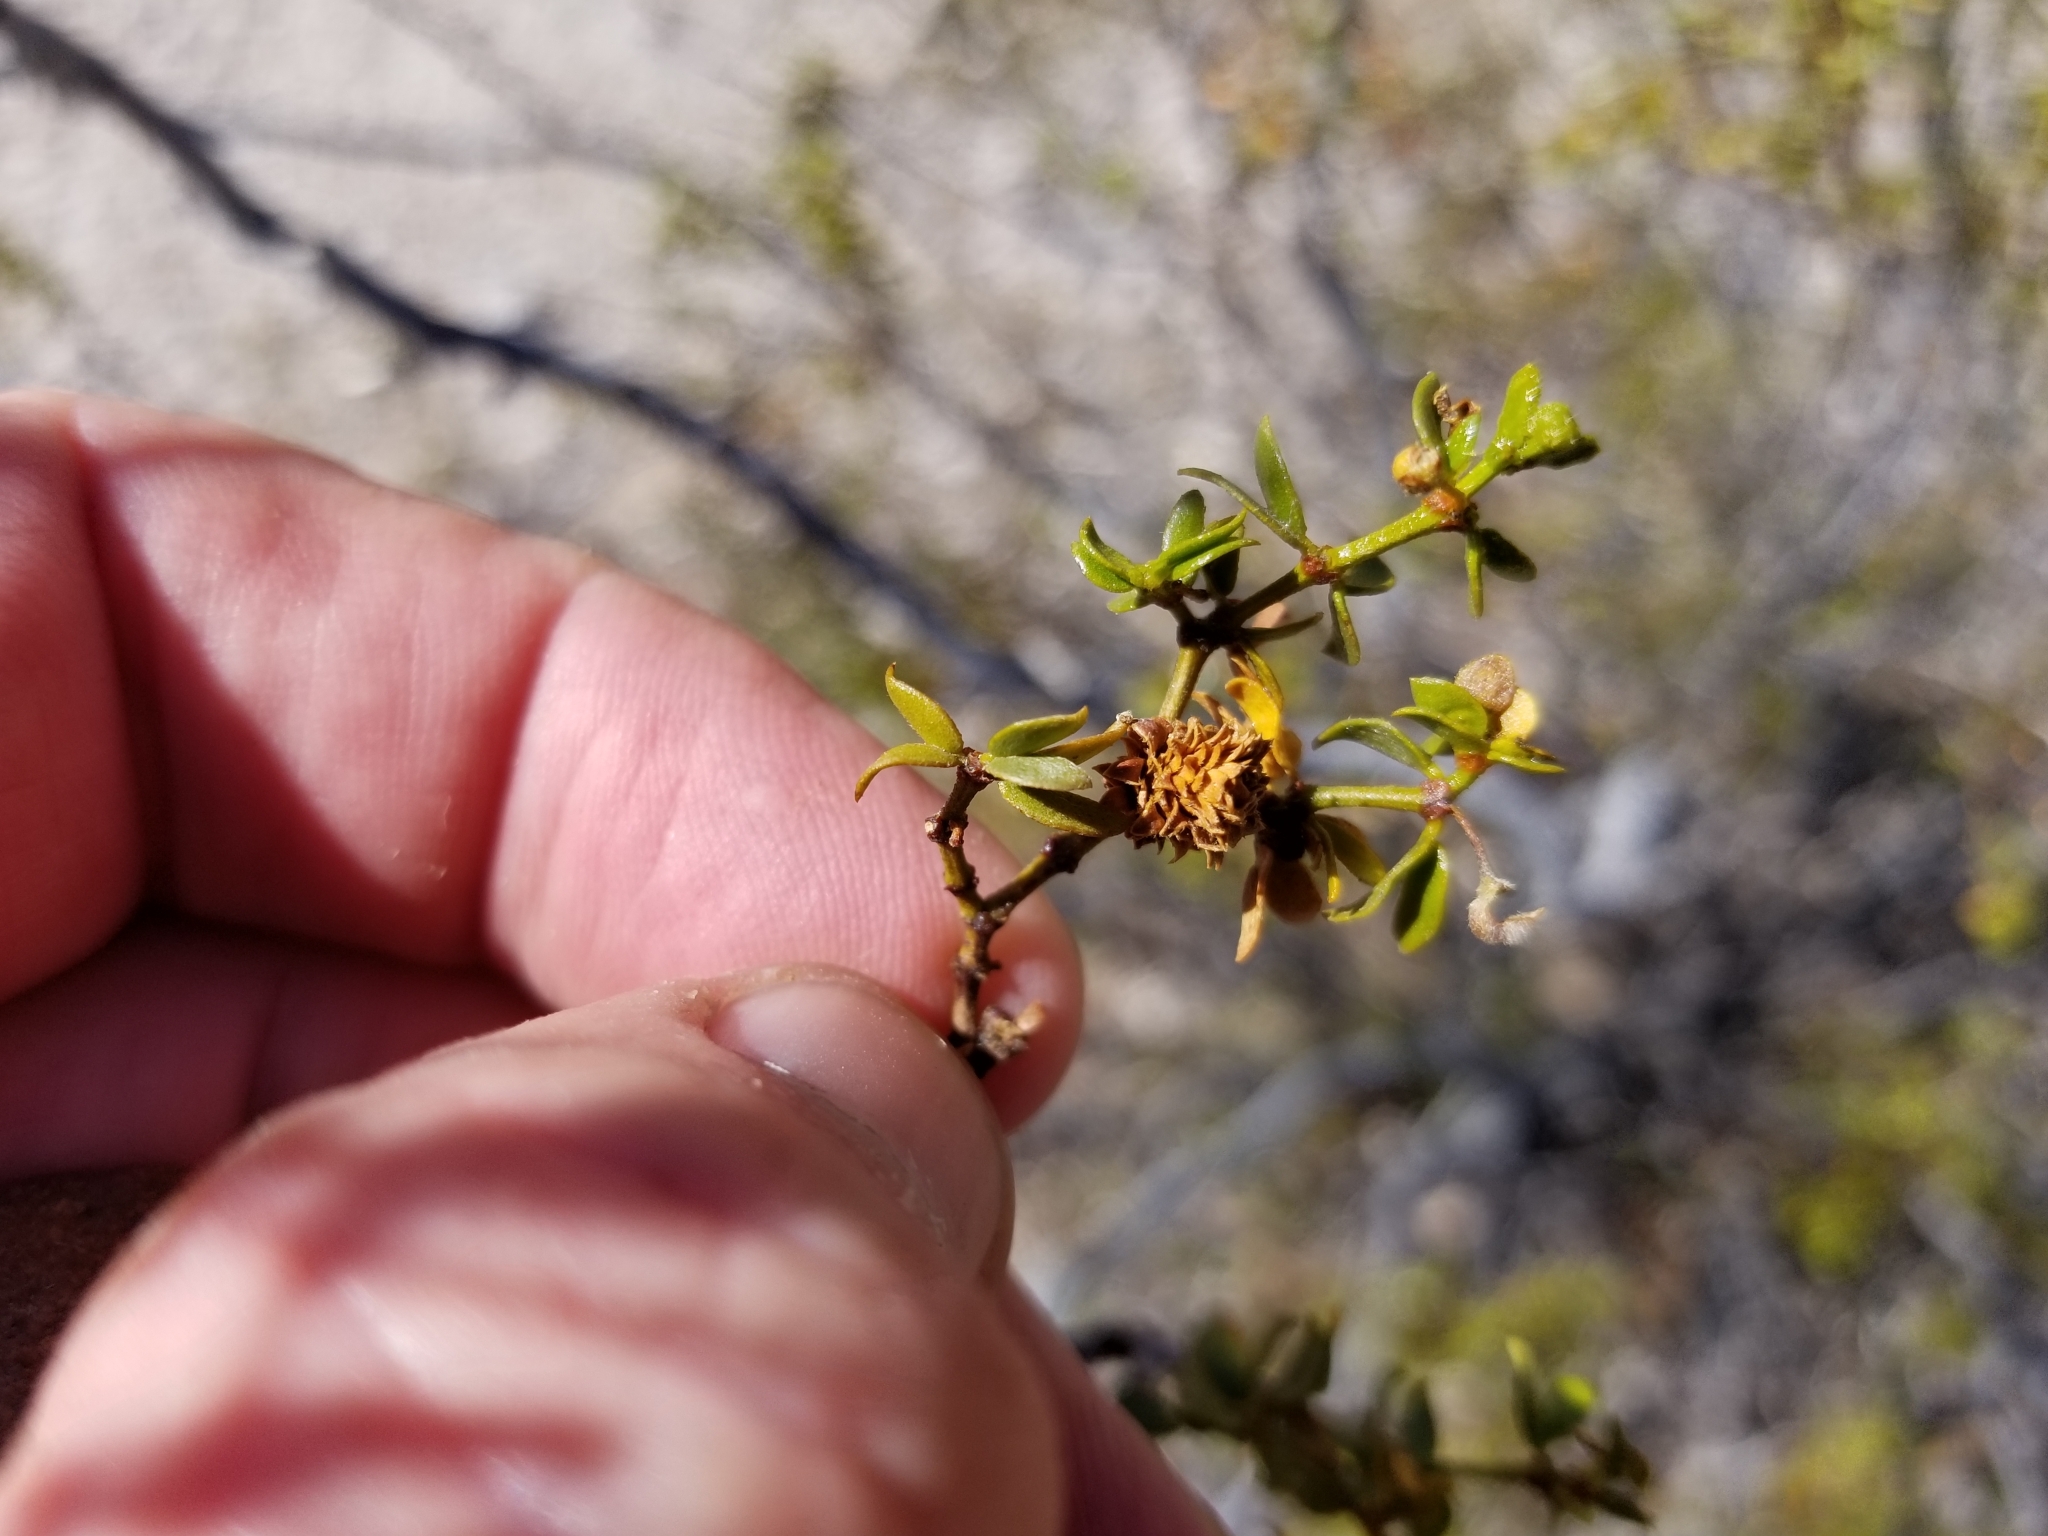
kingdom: Animalia
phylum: Arthropoda
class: Insecta
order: Diptera
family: Cecidomyiidae
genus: Asphondylia
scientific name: Asphondylia rosetta
